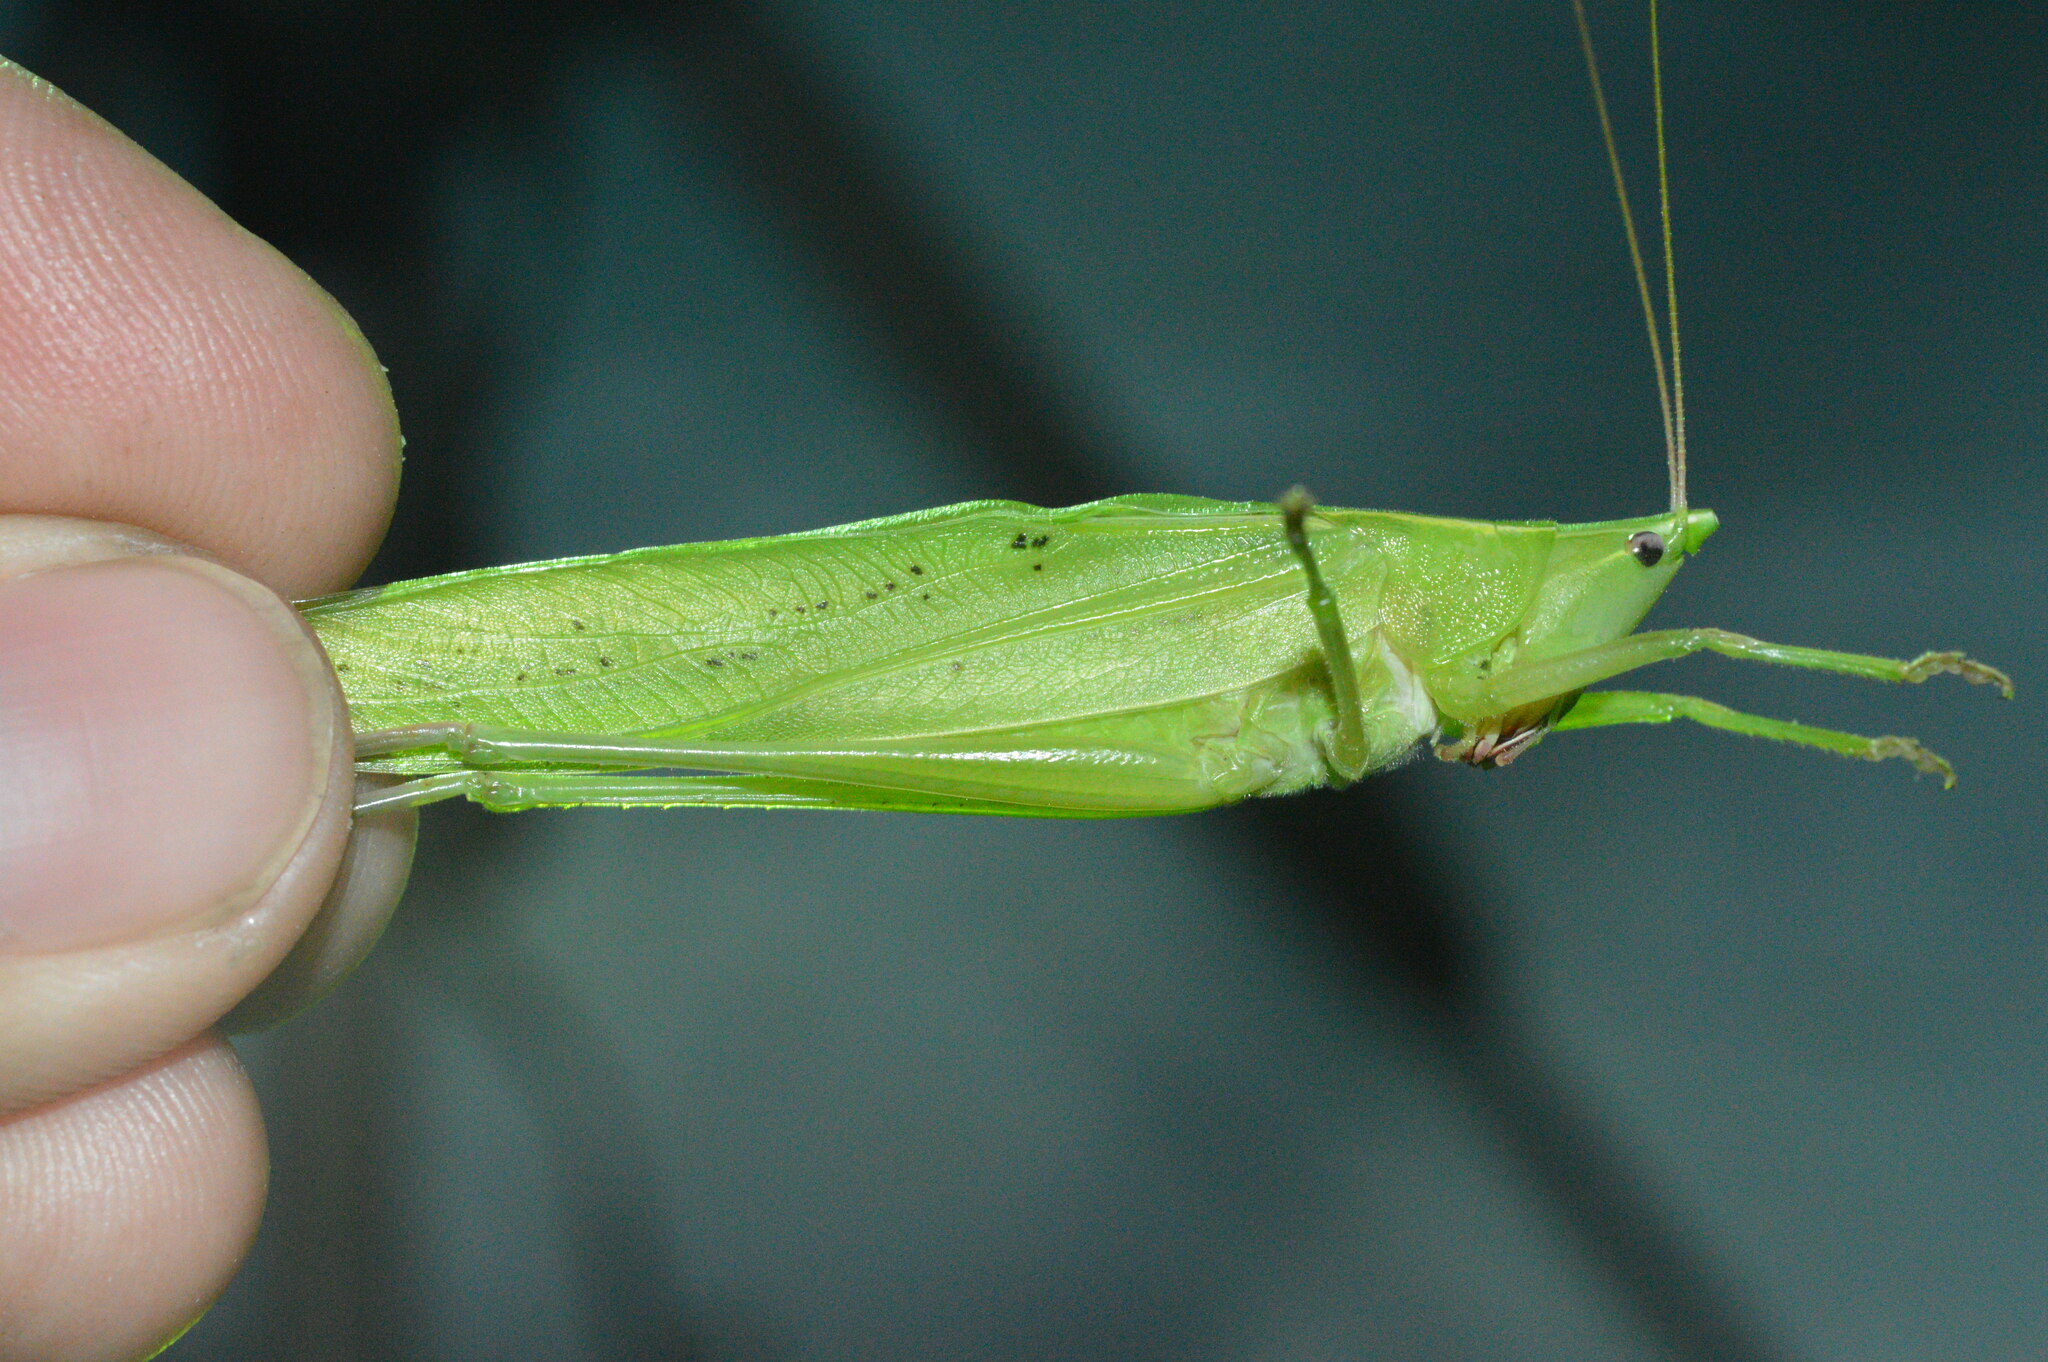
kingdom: Animalia
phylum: Arthropoda
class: Insecta
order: Orthoptera
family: Tettigoniidae
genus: Neoconocephalus
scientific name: Neoconocephalus robustus
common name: Robust conehead
